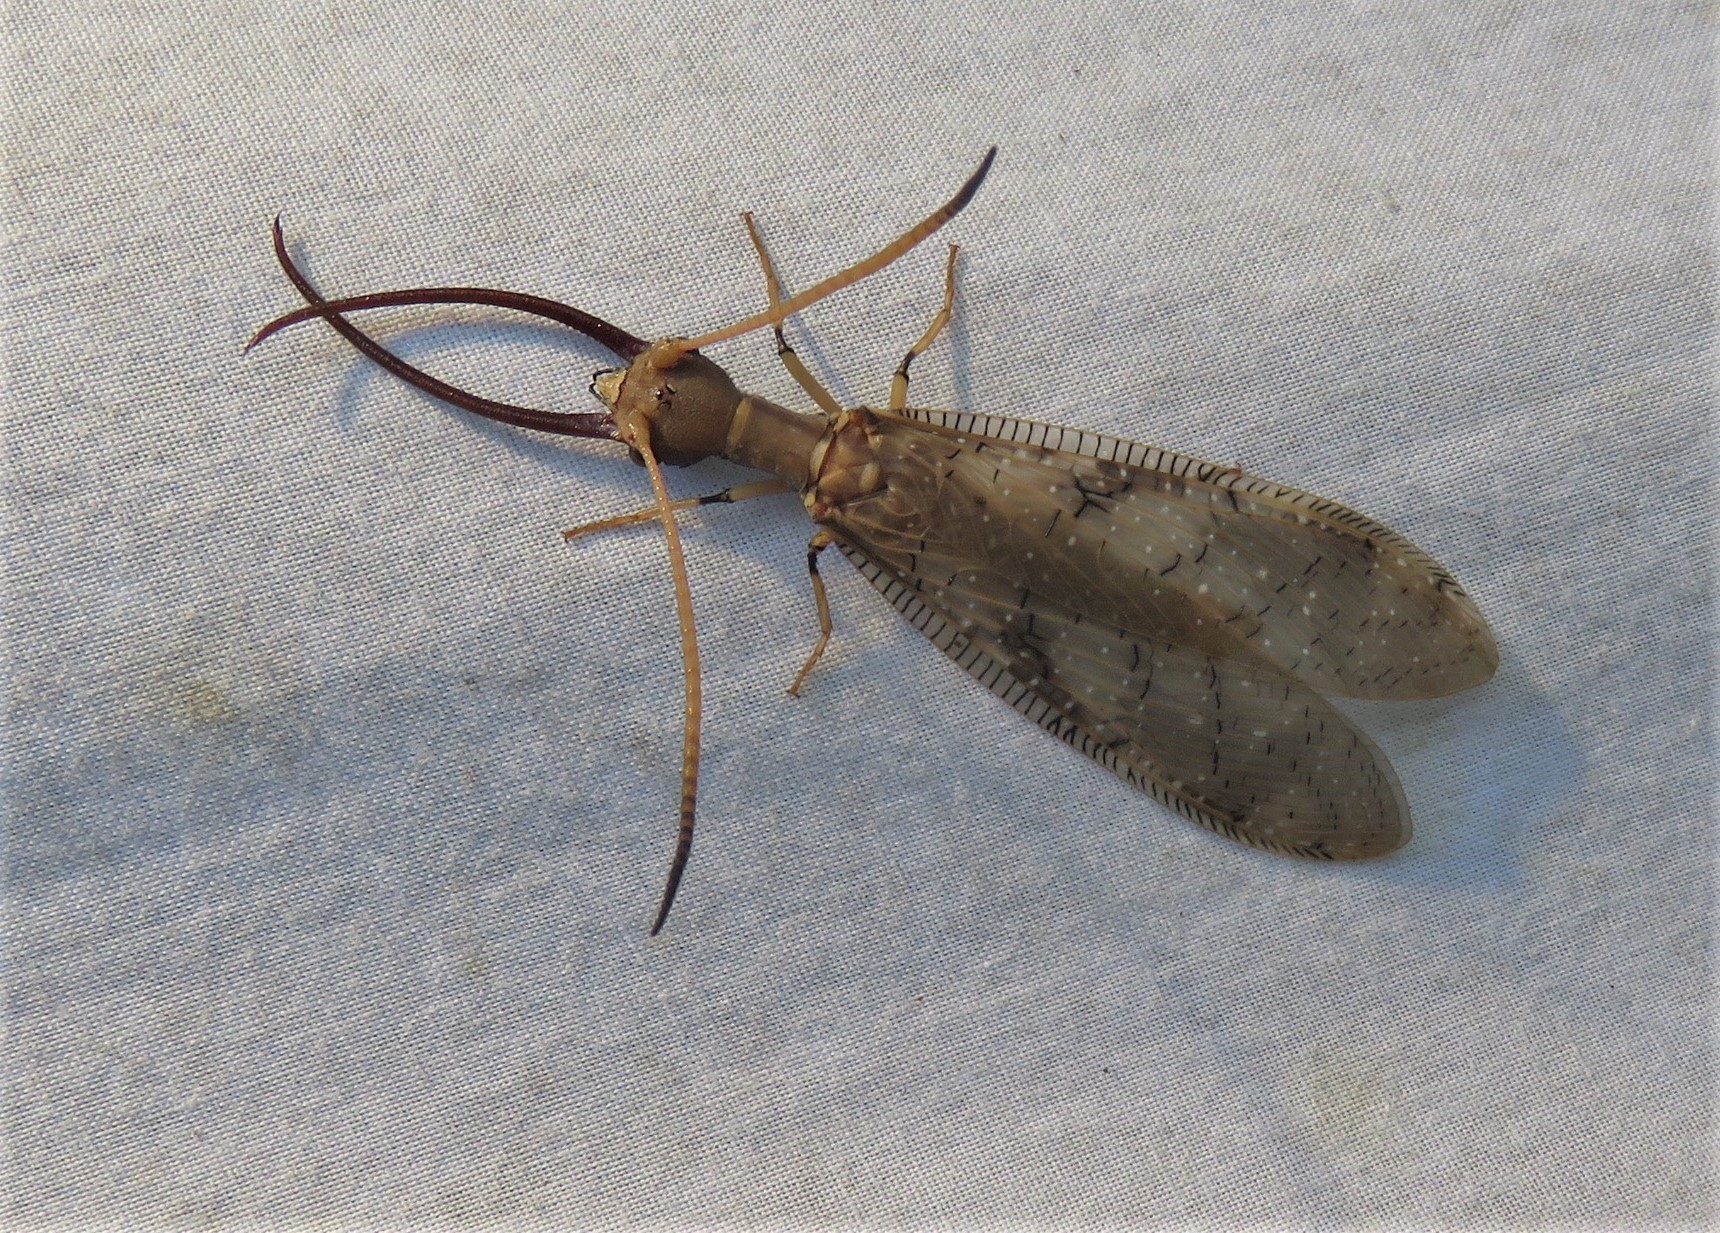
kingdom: Animalia
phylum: Arthropoda
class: Insecta
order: Megaloptera
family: Corydalidae
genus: Corydalus
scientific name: Corydalus flavicornis
